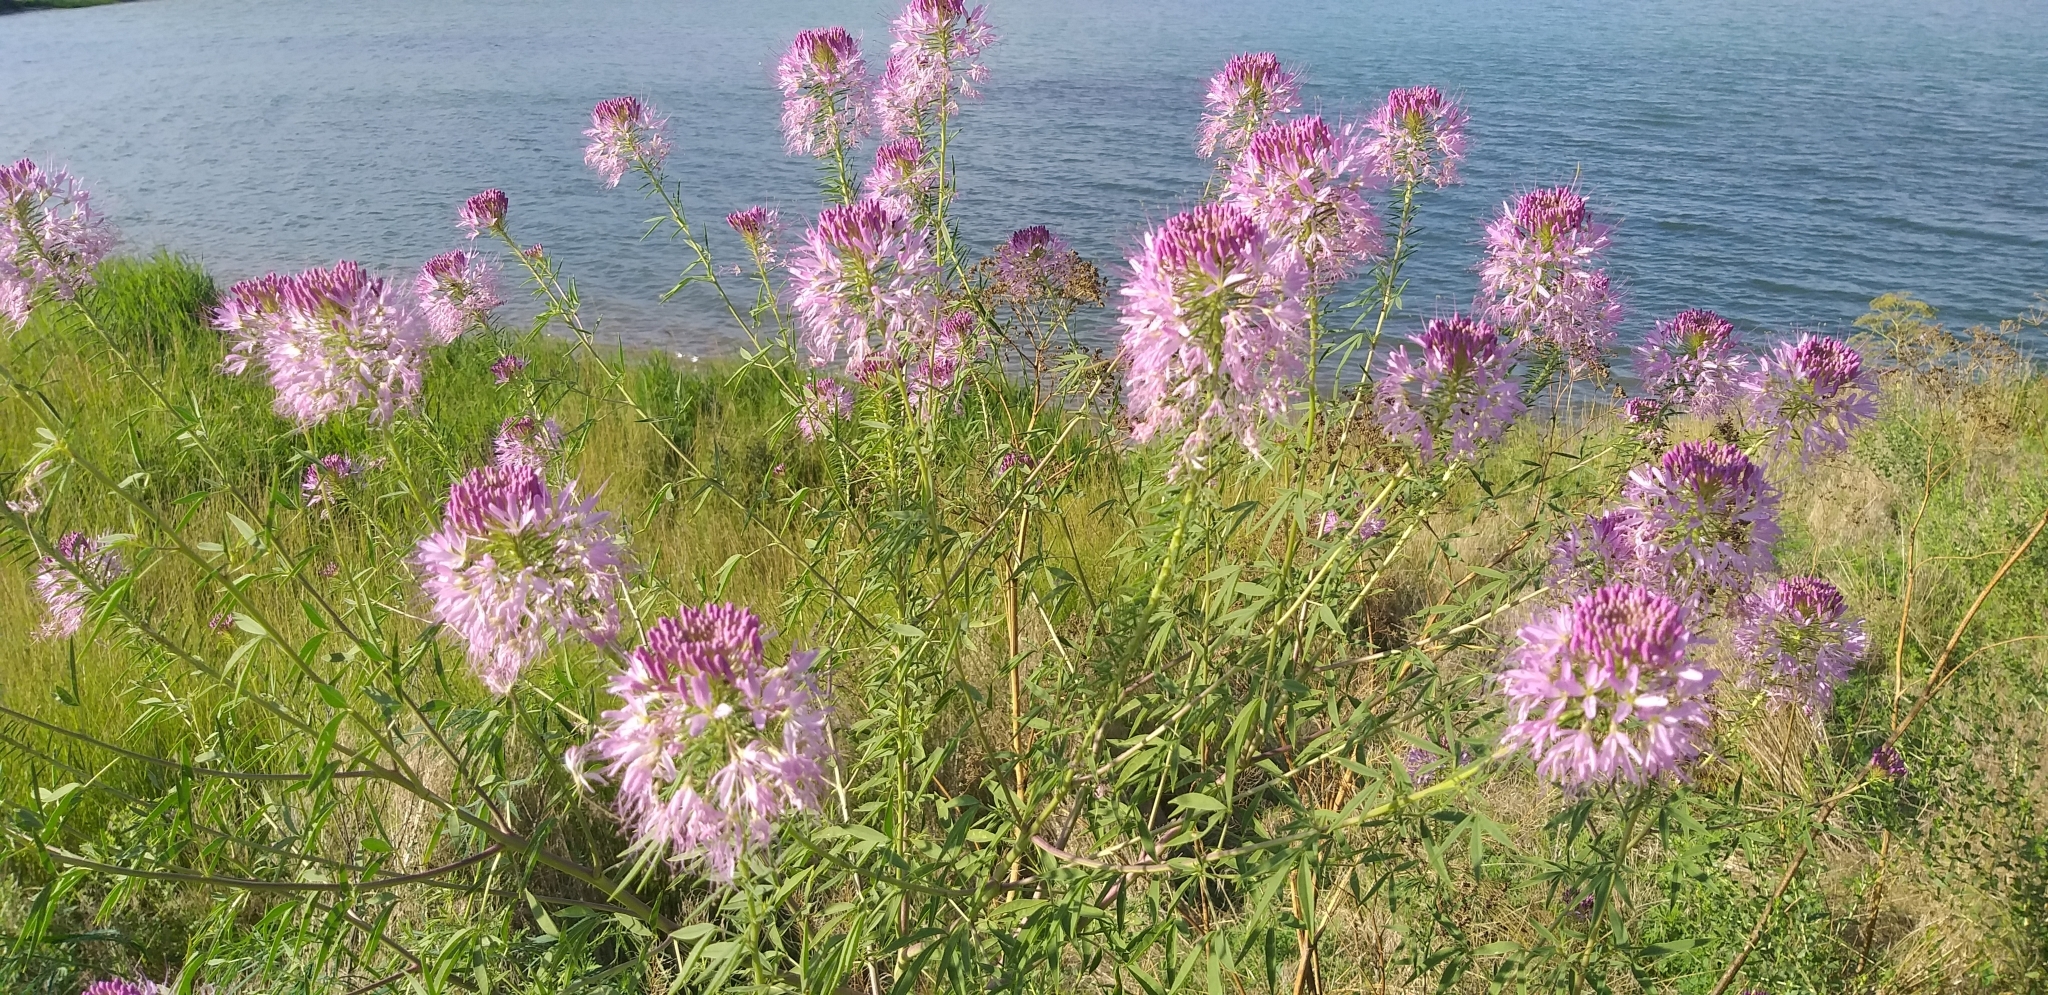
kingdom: Plantae
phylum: Tracheophyta
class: Magnoliopsida
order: Brassicales
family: Cleomaceae
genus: Cleomella
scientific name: Cleomella serrulata
